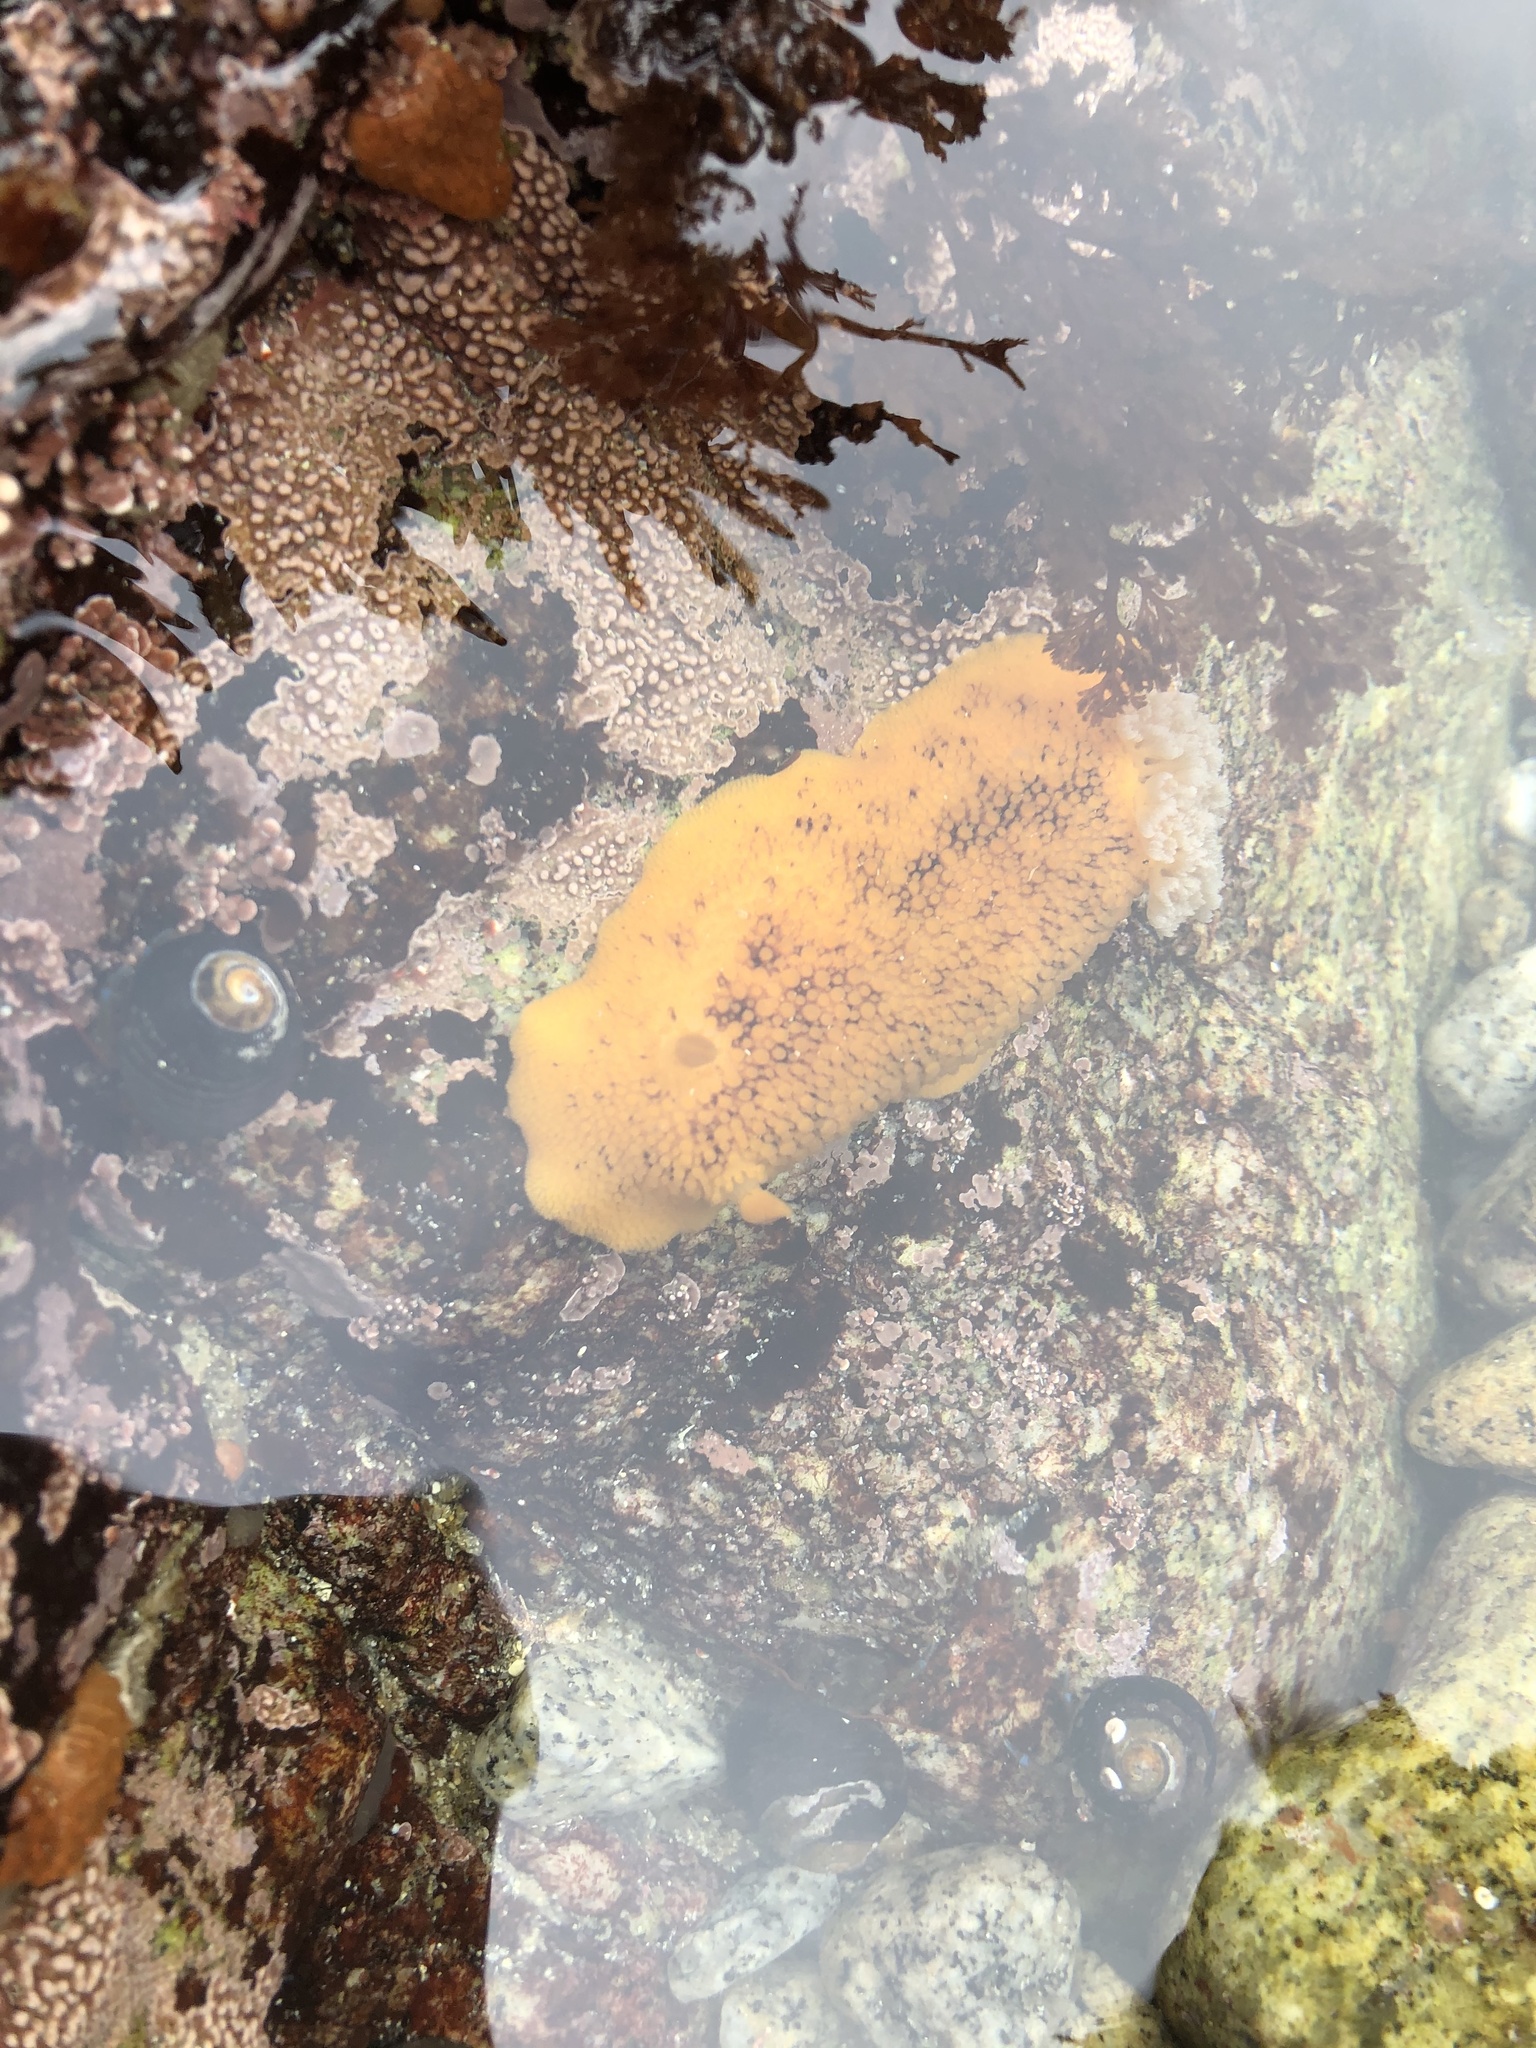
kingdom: Animalia
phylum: Mollusca
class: Gastropoda
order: Nudibranchia
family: Discodorididae
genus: Peltodoris
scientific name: Peltodoris nobilis
